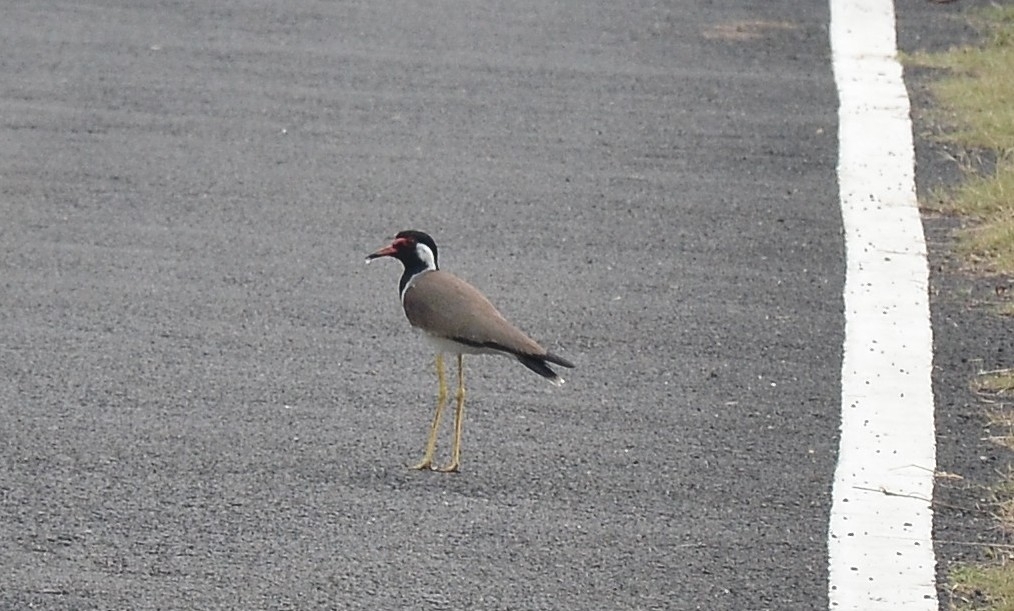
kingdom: Animalia
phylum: Chordata
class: Aves
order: Charadriiformes
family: Charadriidae
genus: Vanellus
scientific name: Vanellus indicus
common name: Red-wattled lapwing
